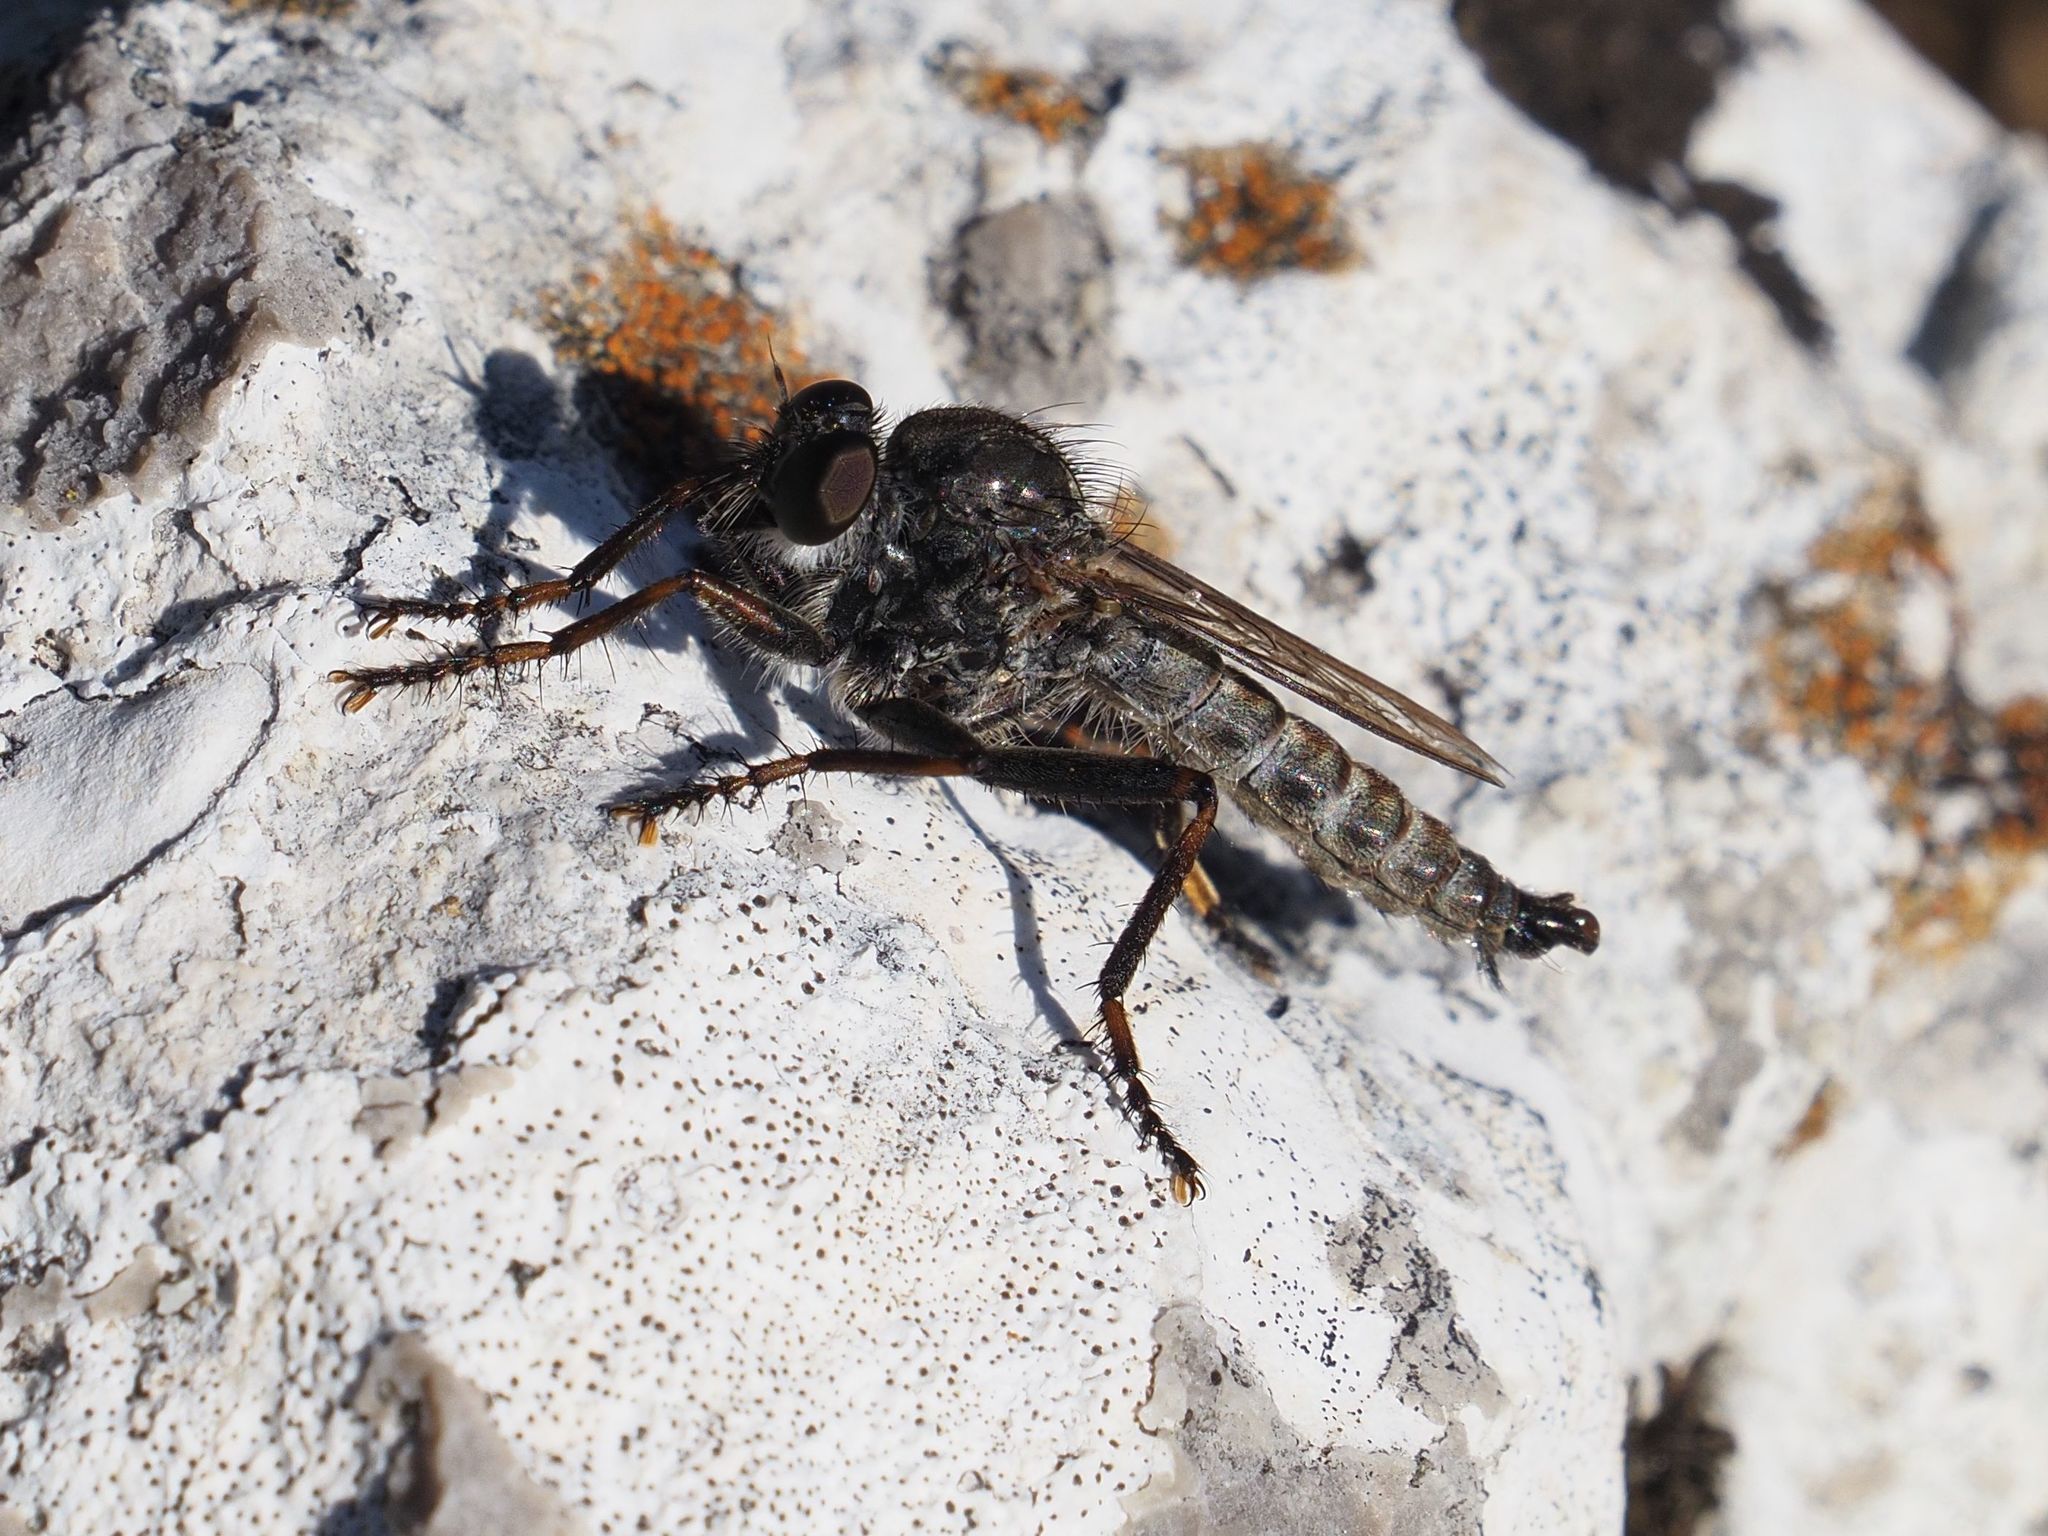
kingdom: Animalia
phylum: Arthropoda
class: Insecta
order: Diptera
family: Asilidae
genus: Machimus
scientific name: Machimus atricapillus
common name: Kite-tailed robberfly
